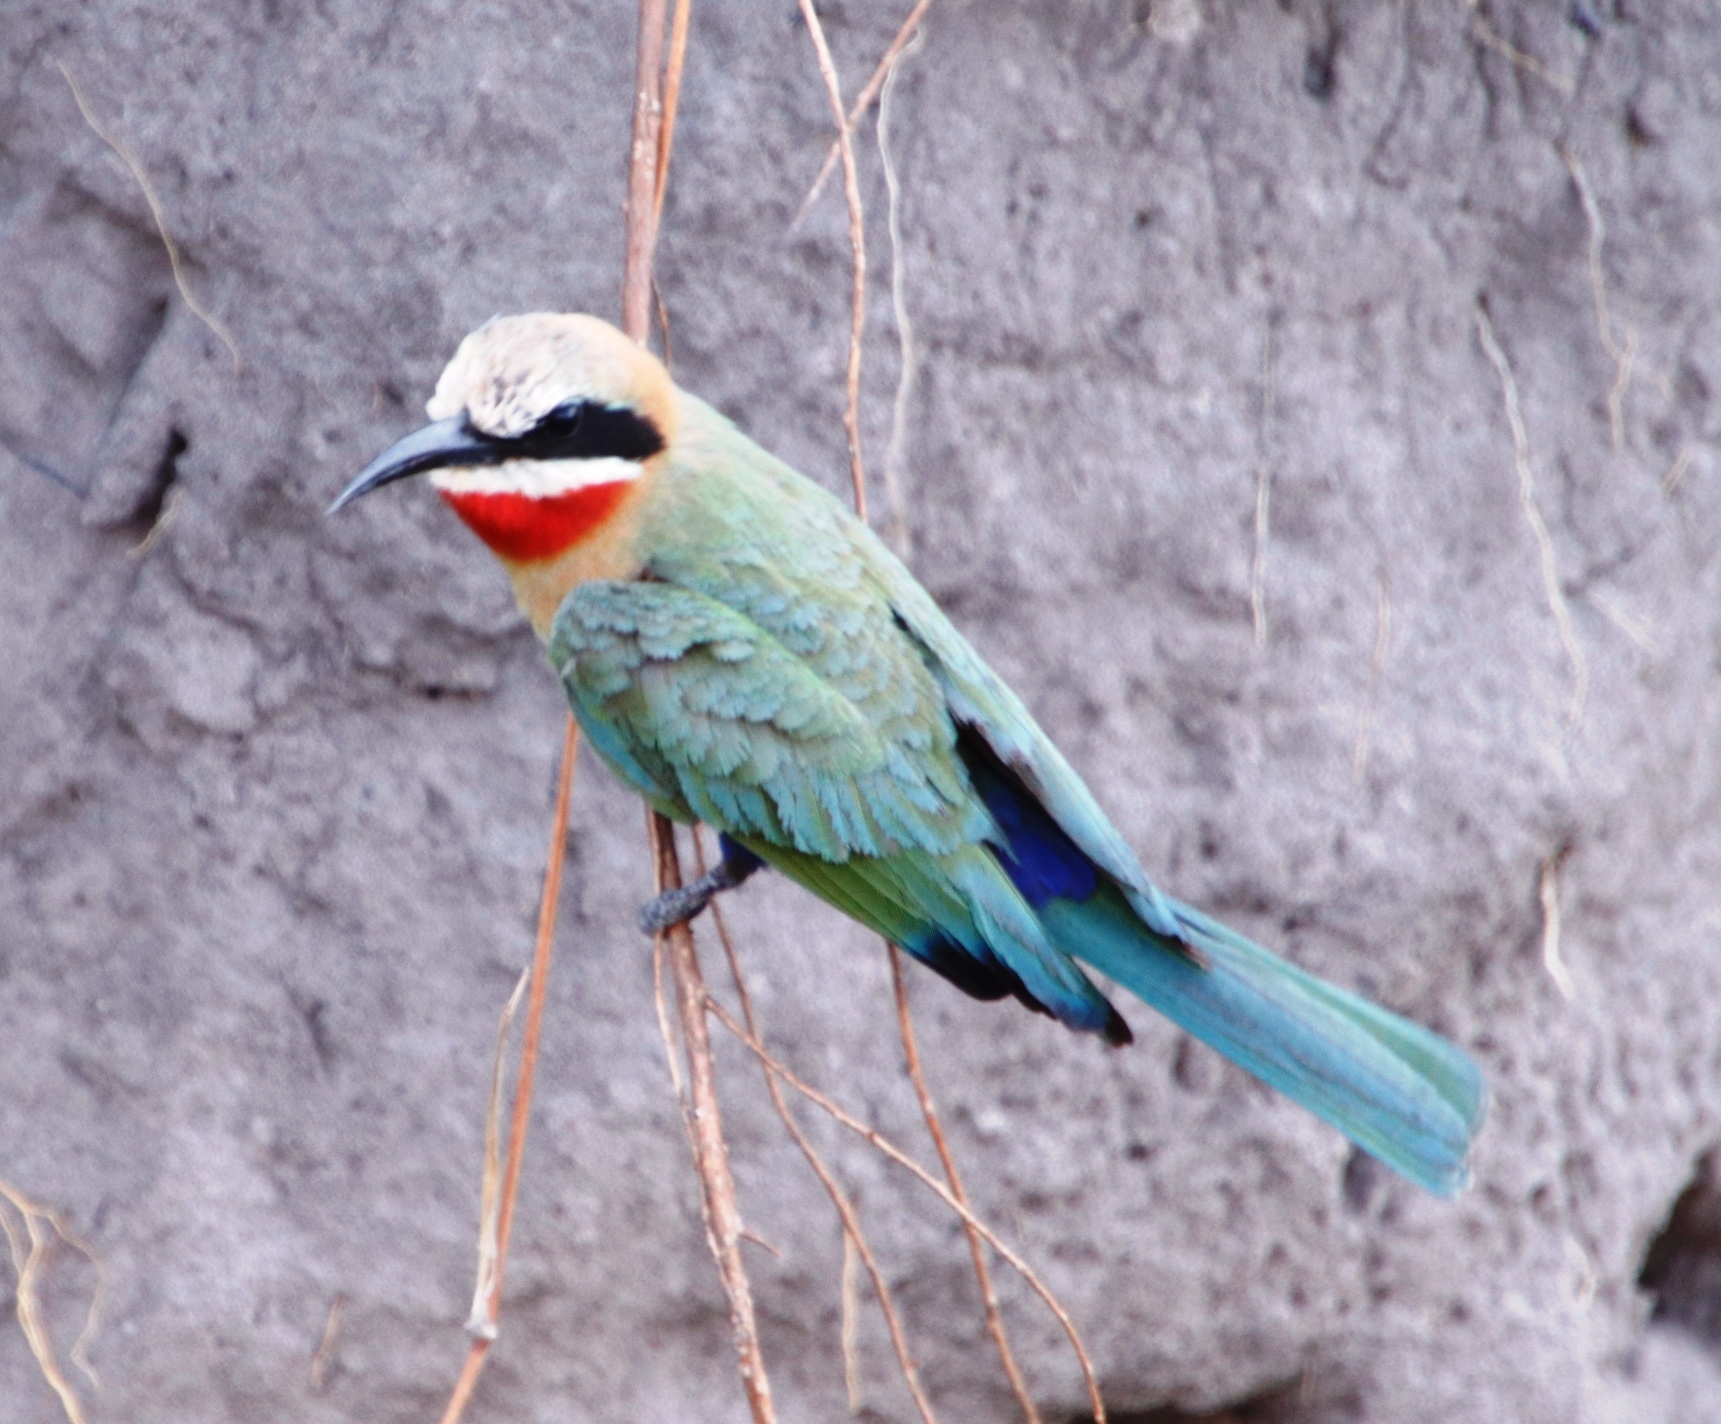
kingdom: Animalia
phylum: Chordata
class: Aves
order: Coraciiformes
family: Meropidae
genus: Merops
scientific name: Merops bullockoides
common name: White-fronted bee-eater
